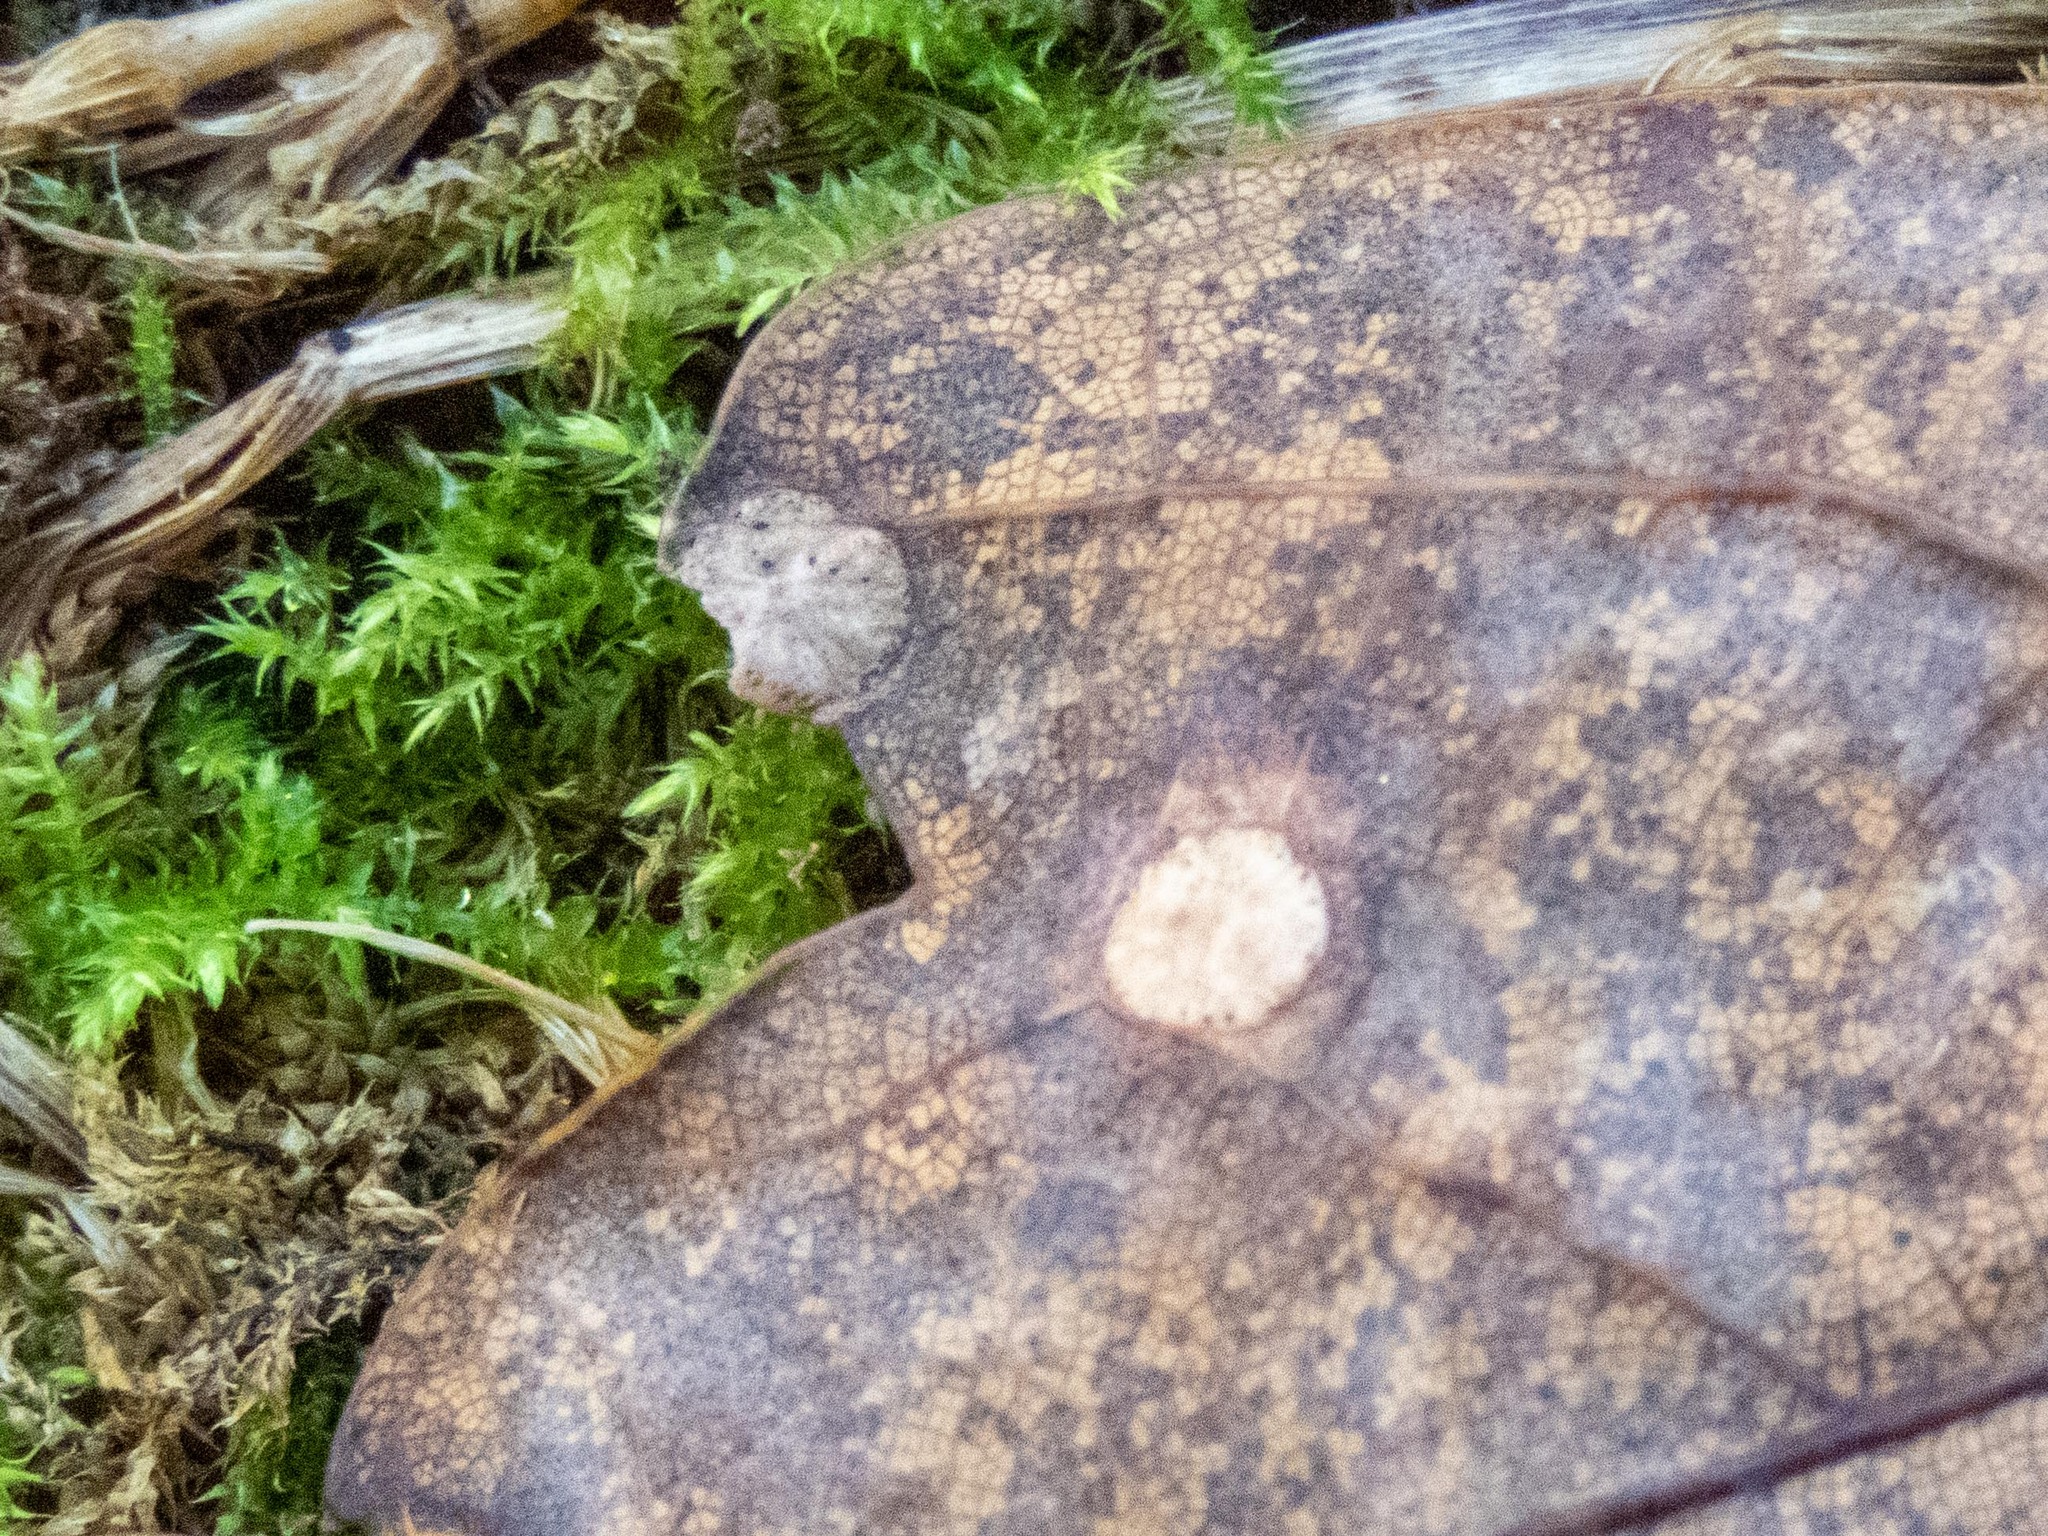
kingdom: Animalia
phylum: Arthropoda
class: Insecta
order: Hymenoptera
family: Cynipidae
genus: Neuroterus
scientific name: Neuroterus numismalis
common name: Silk-button spangle gall
